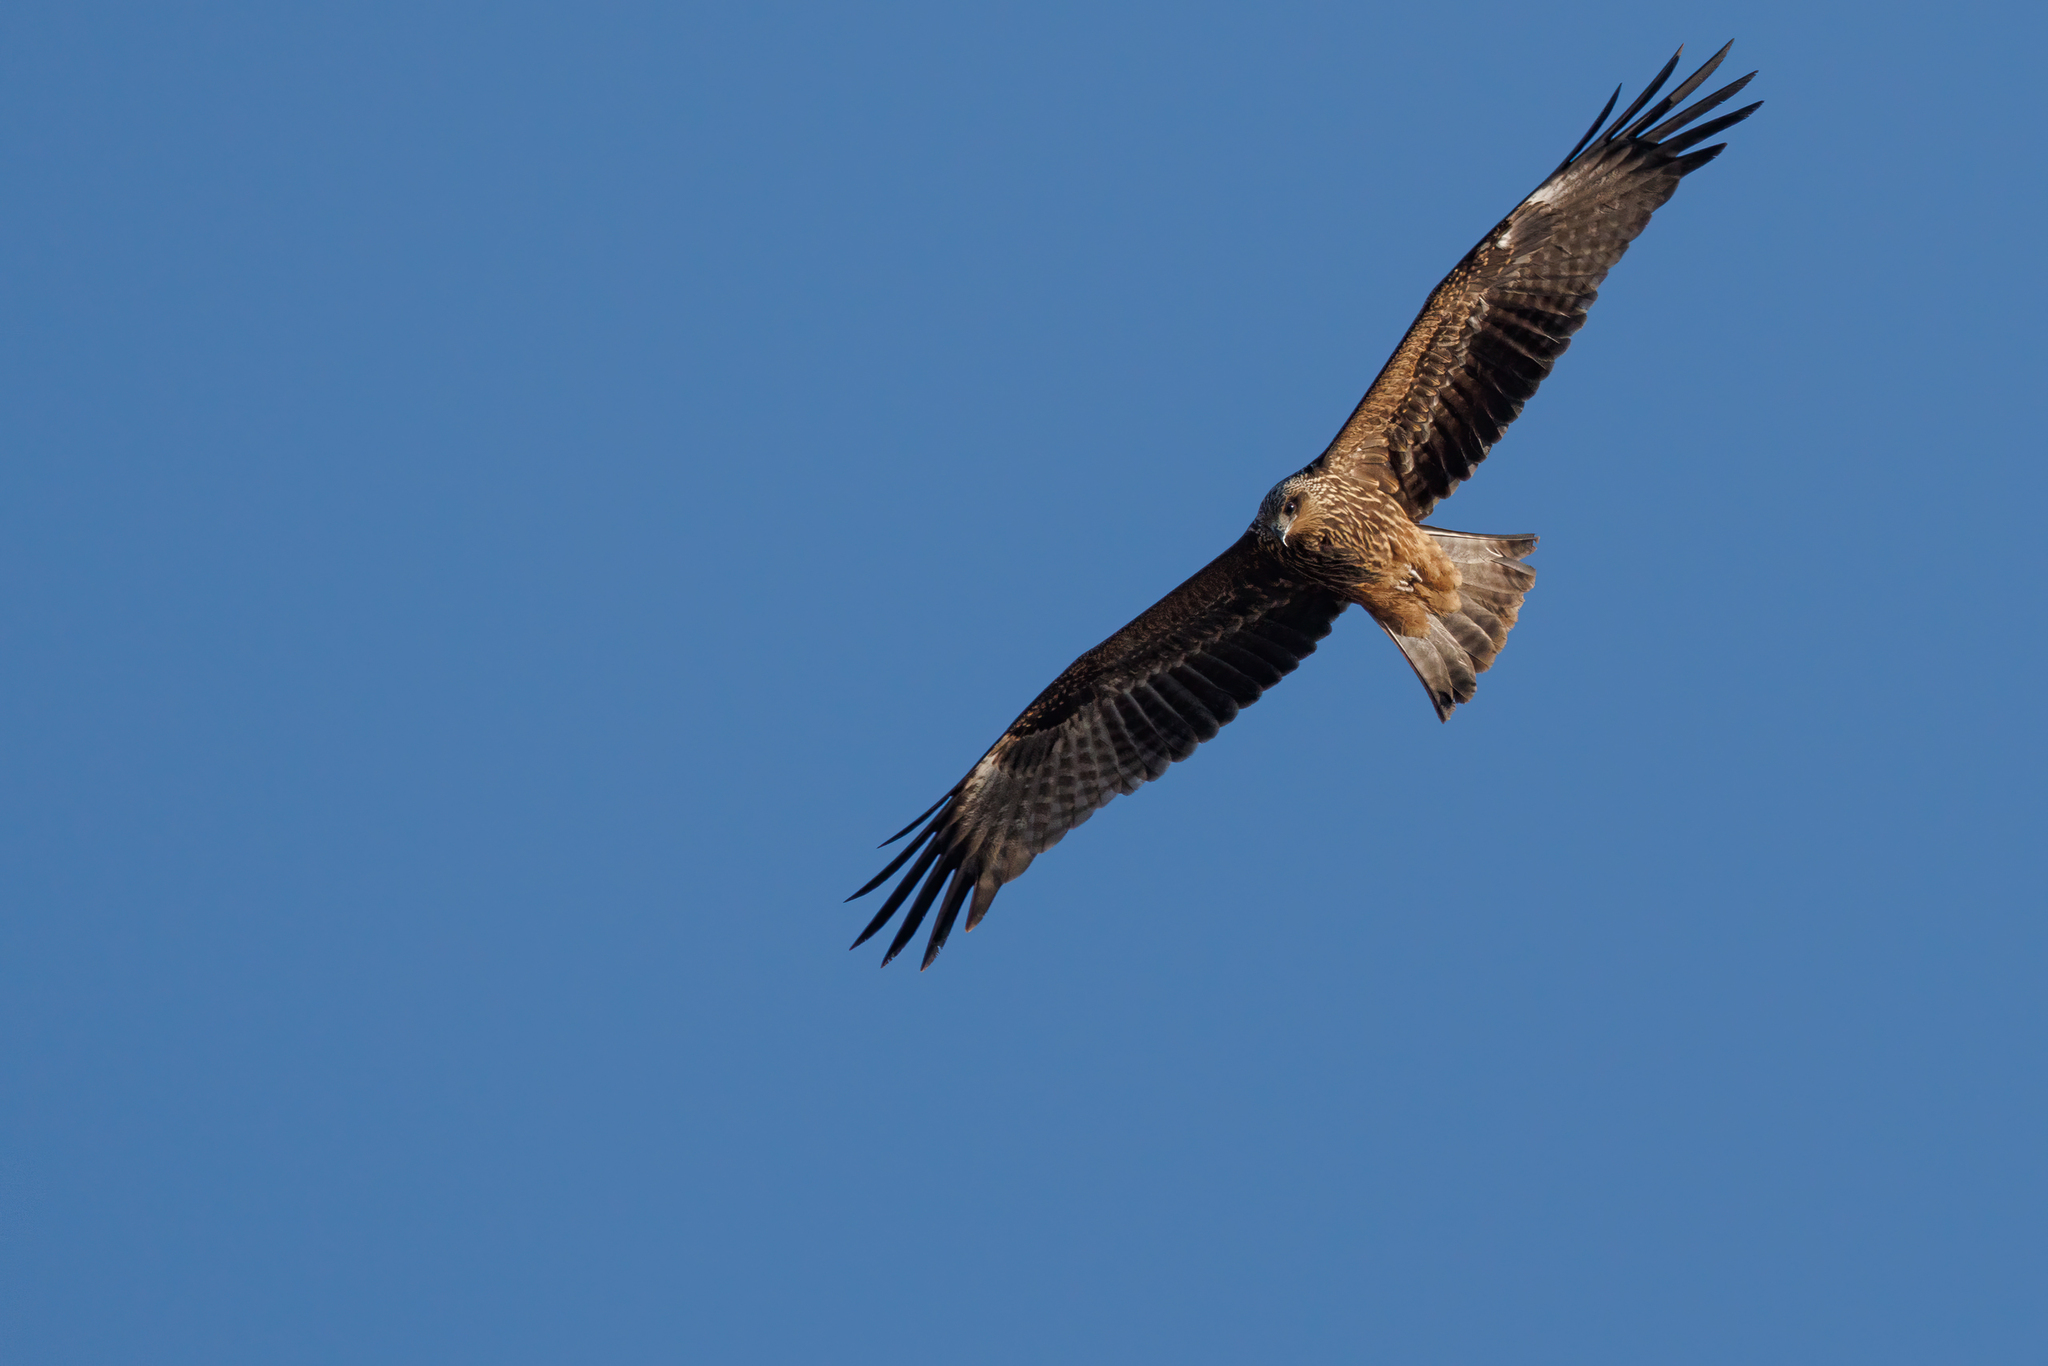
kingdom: Animalia
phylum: Chordata
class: Aves
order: Accipitriformes
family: Accipitridae
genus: Milvus
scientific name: Milvus migrans
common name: Black kite
